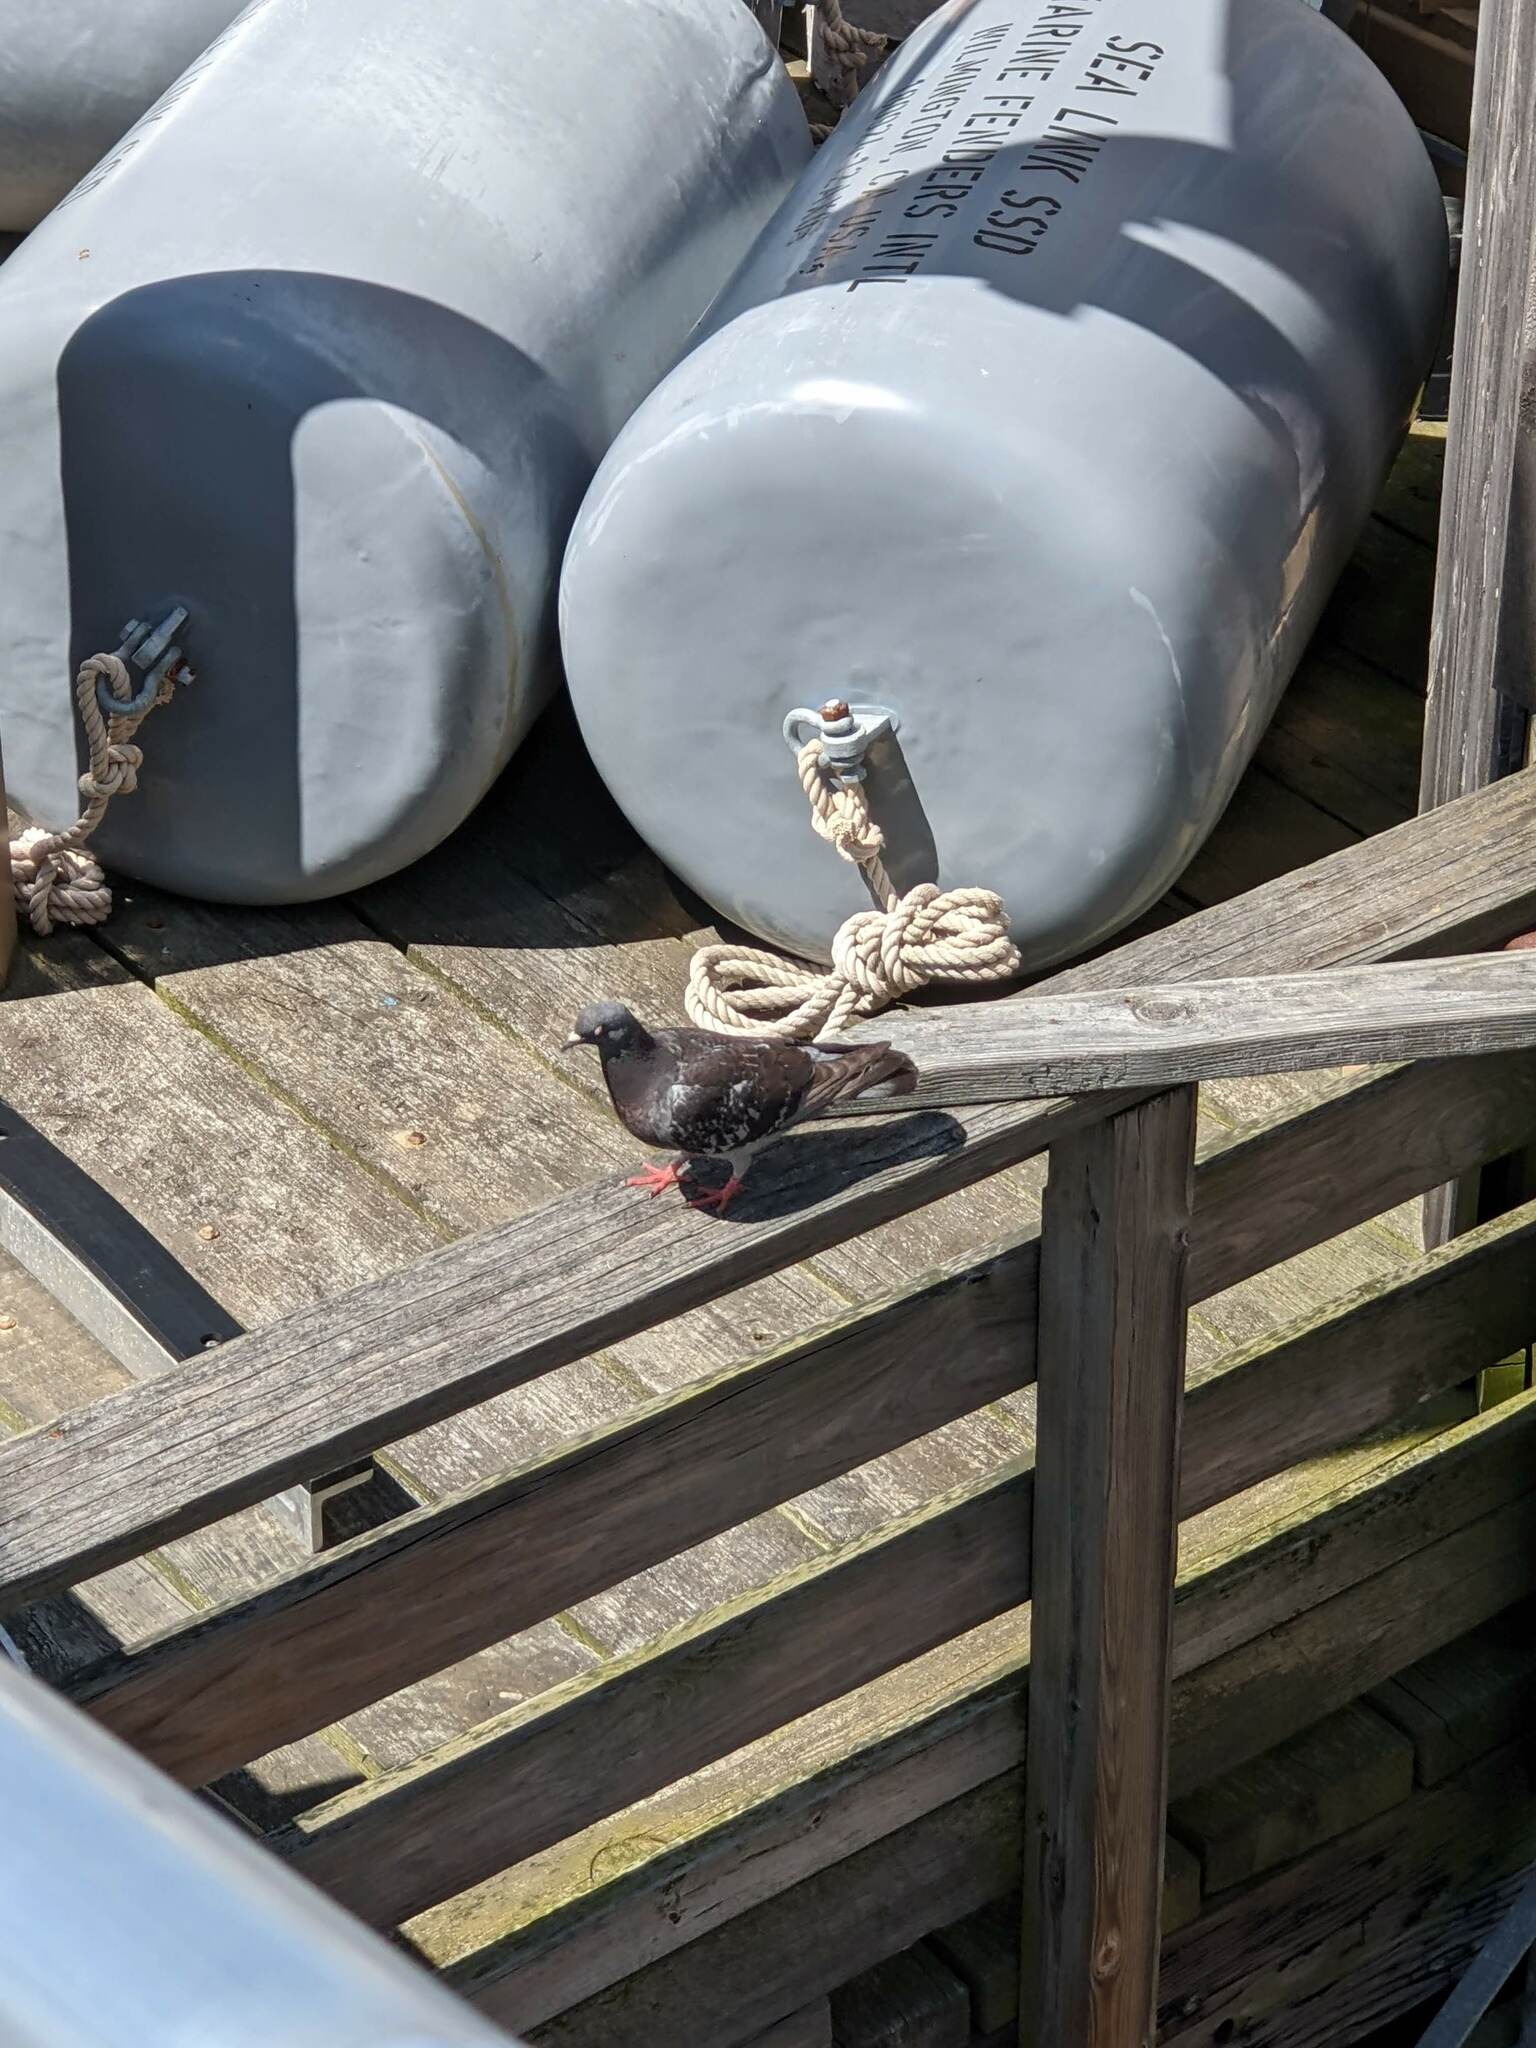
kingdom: Animalia
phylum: Chordata
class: Aves
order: Columbiformes
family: Columbidae
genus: Columba
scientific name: Columba livia
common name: Rock pigeon
